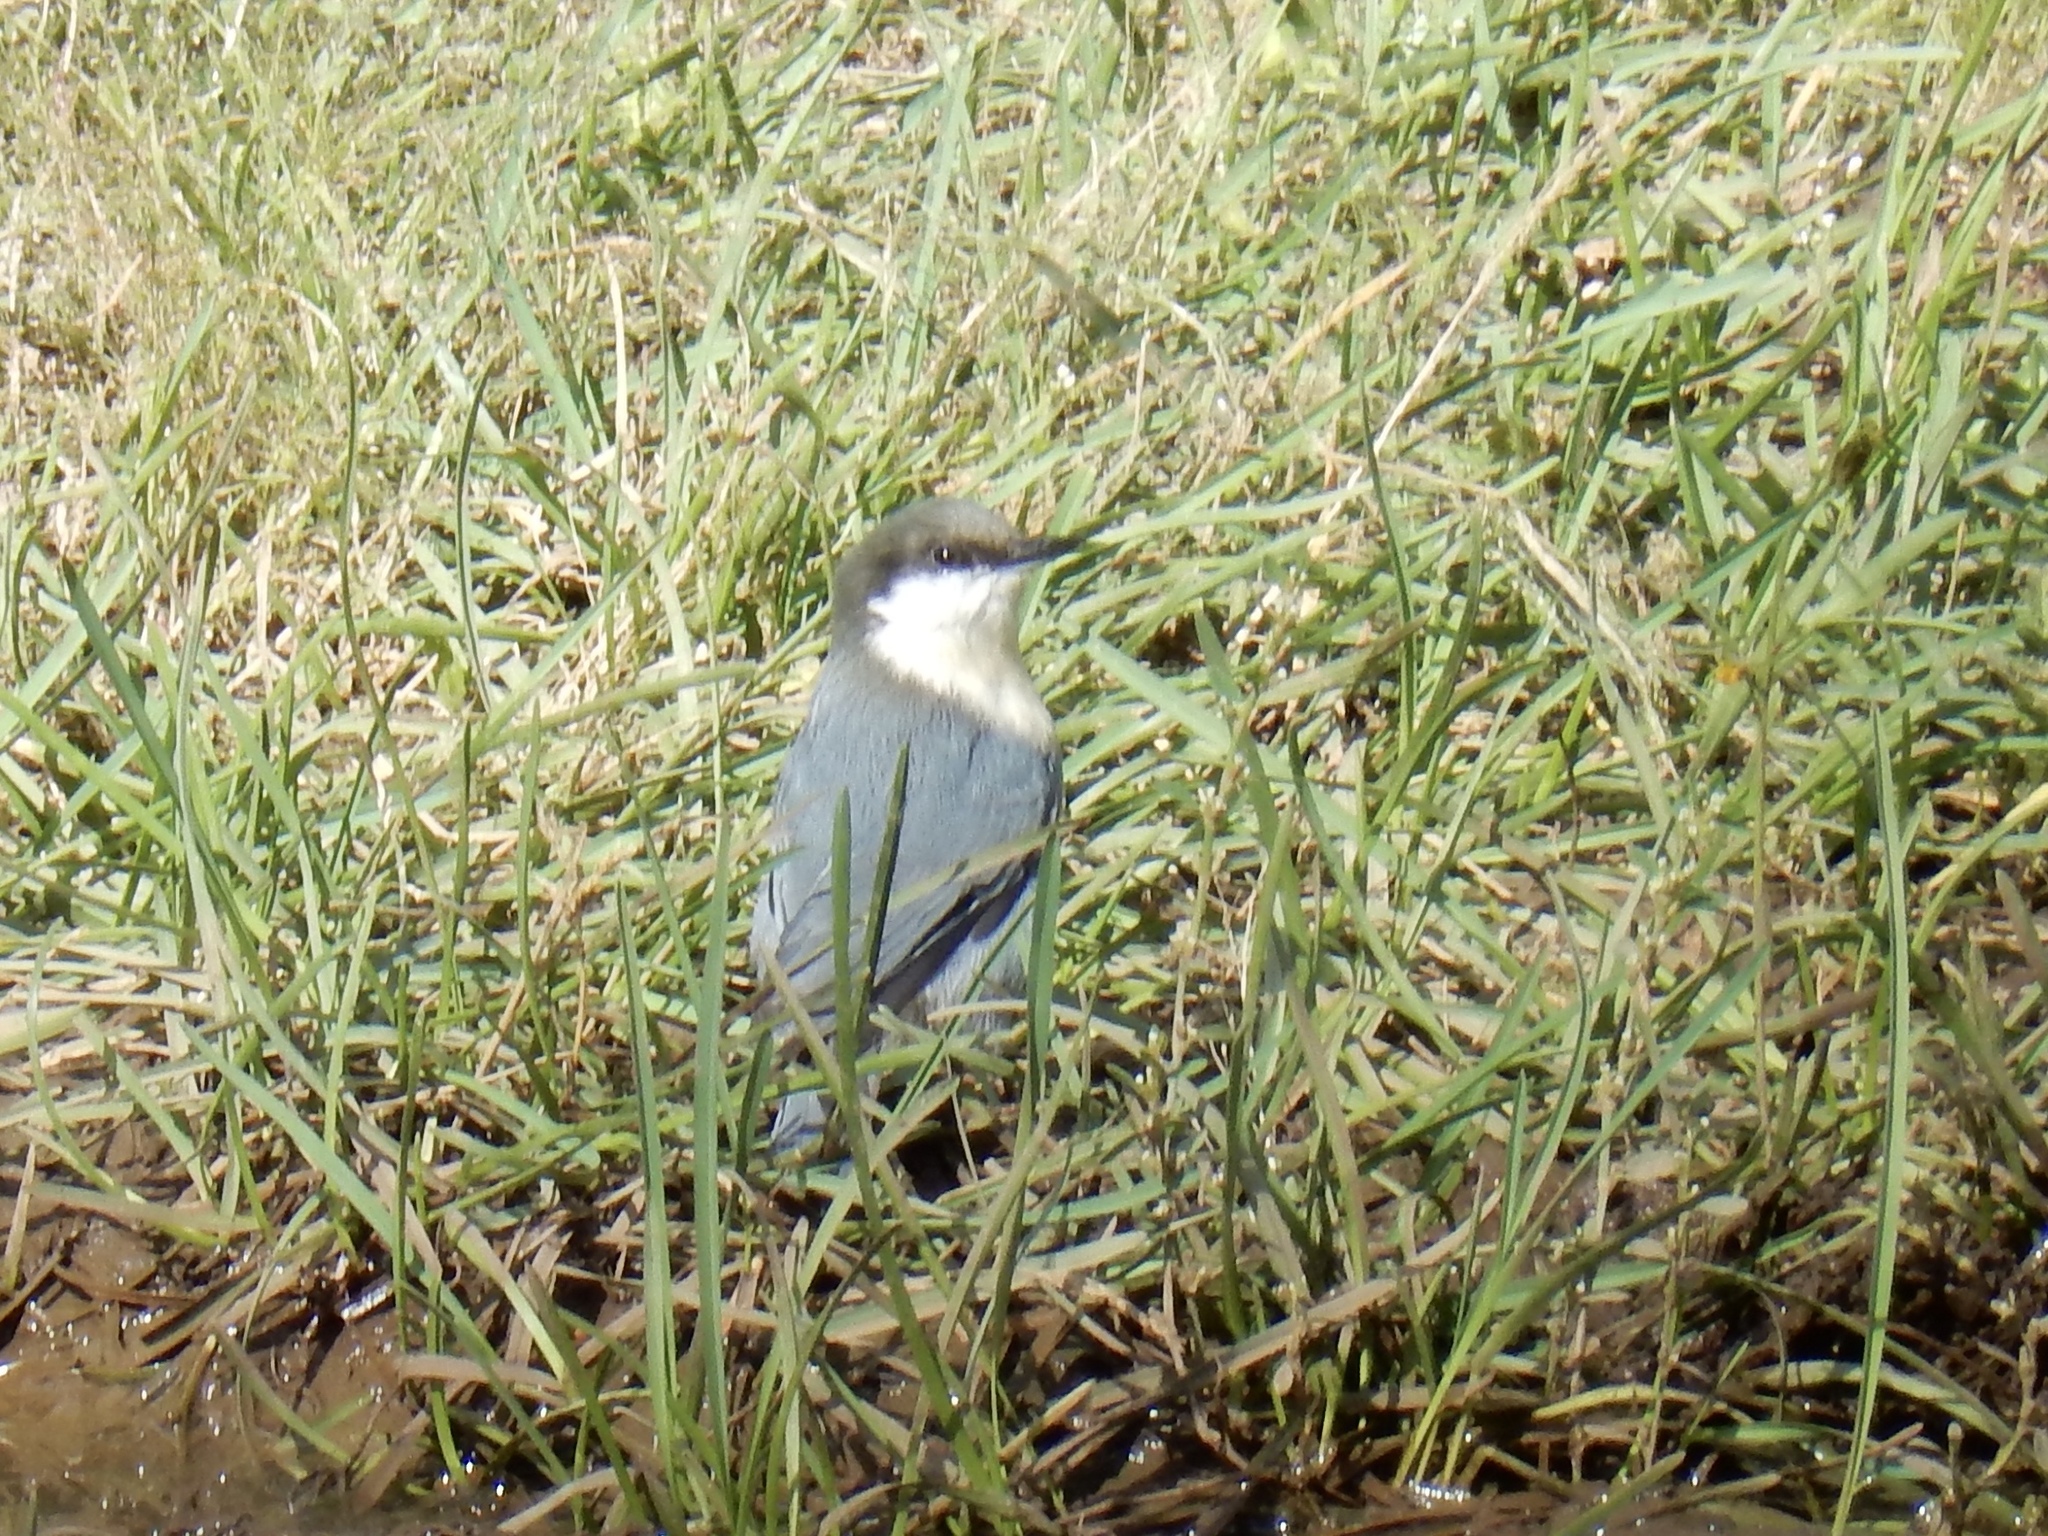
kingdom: Animalia
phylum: Chordata
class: Aves
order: Passeriformes
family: Sittidae
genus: Sitta
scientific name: Sitta pygmaea
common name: Pygmy nuthatch
